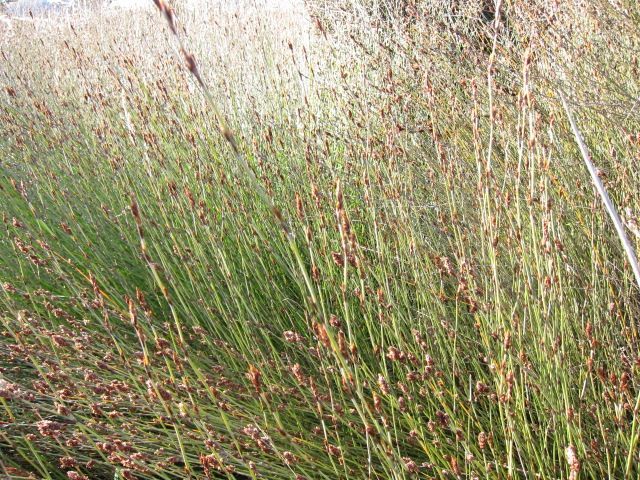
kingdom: Plantae
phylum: Tracheophyta
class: Liliopsida
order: Poales
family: Restionaceae
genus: Apodasmia
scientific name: Apodasmia similis
